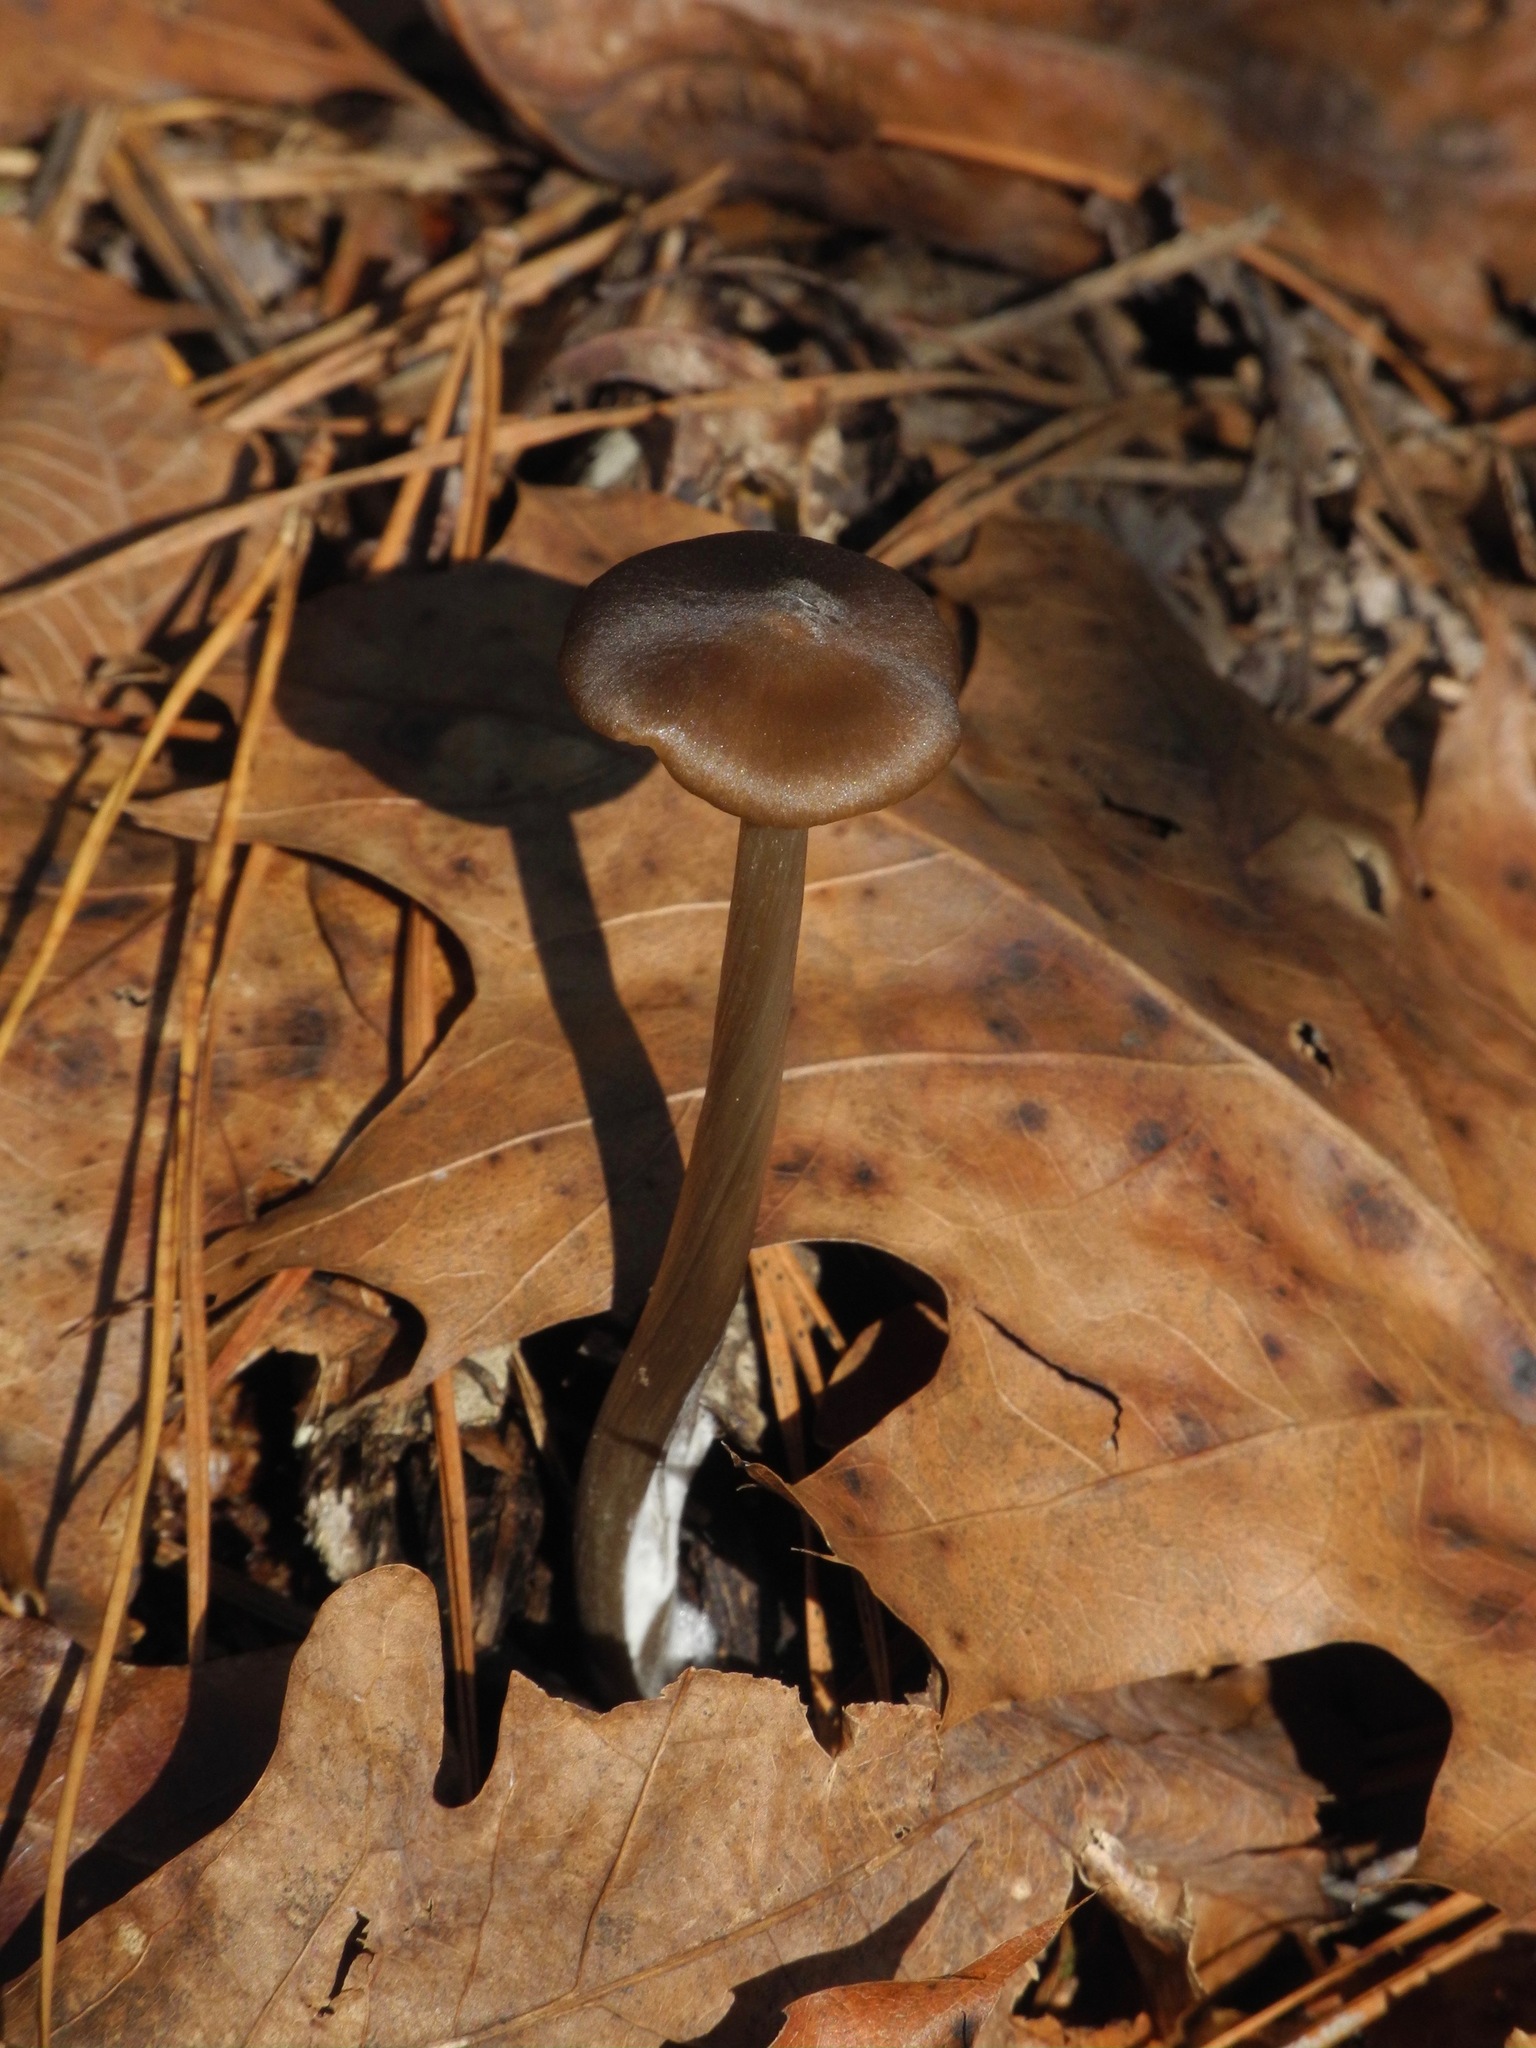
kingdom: Fungi
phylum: Basidiomycota
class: Agaricomycetes
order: Agaricales
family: Entolomataceae
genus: Entoloma
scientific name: Entoloma sericeum
